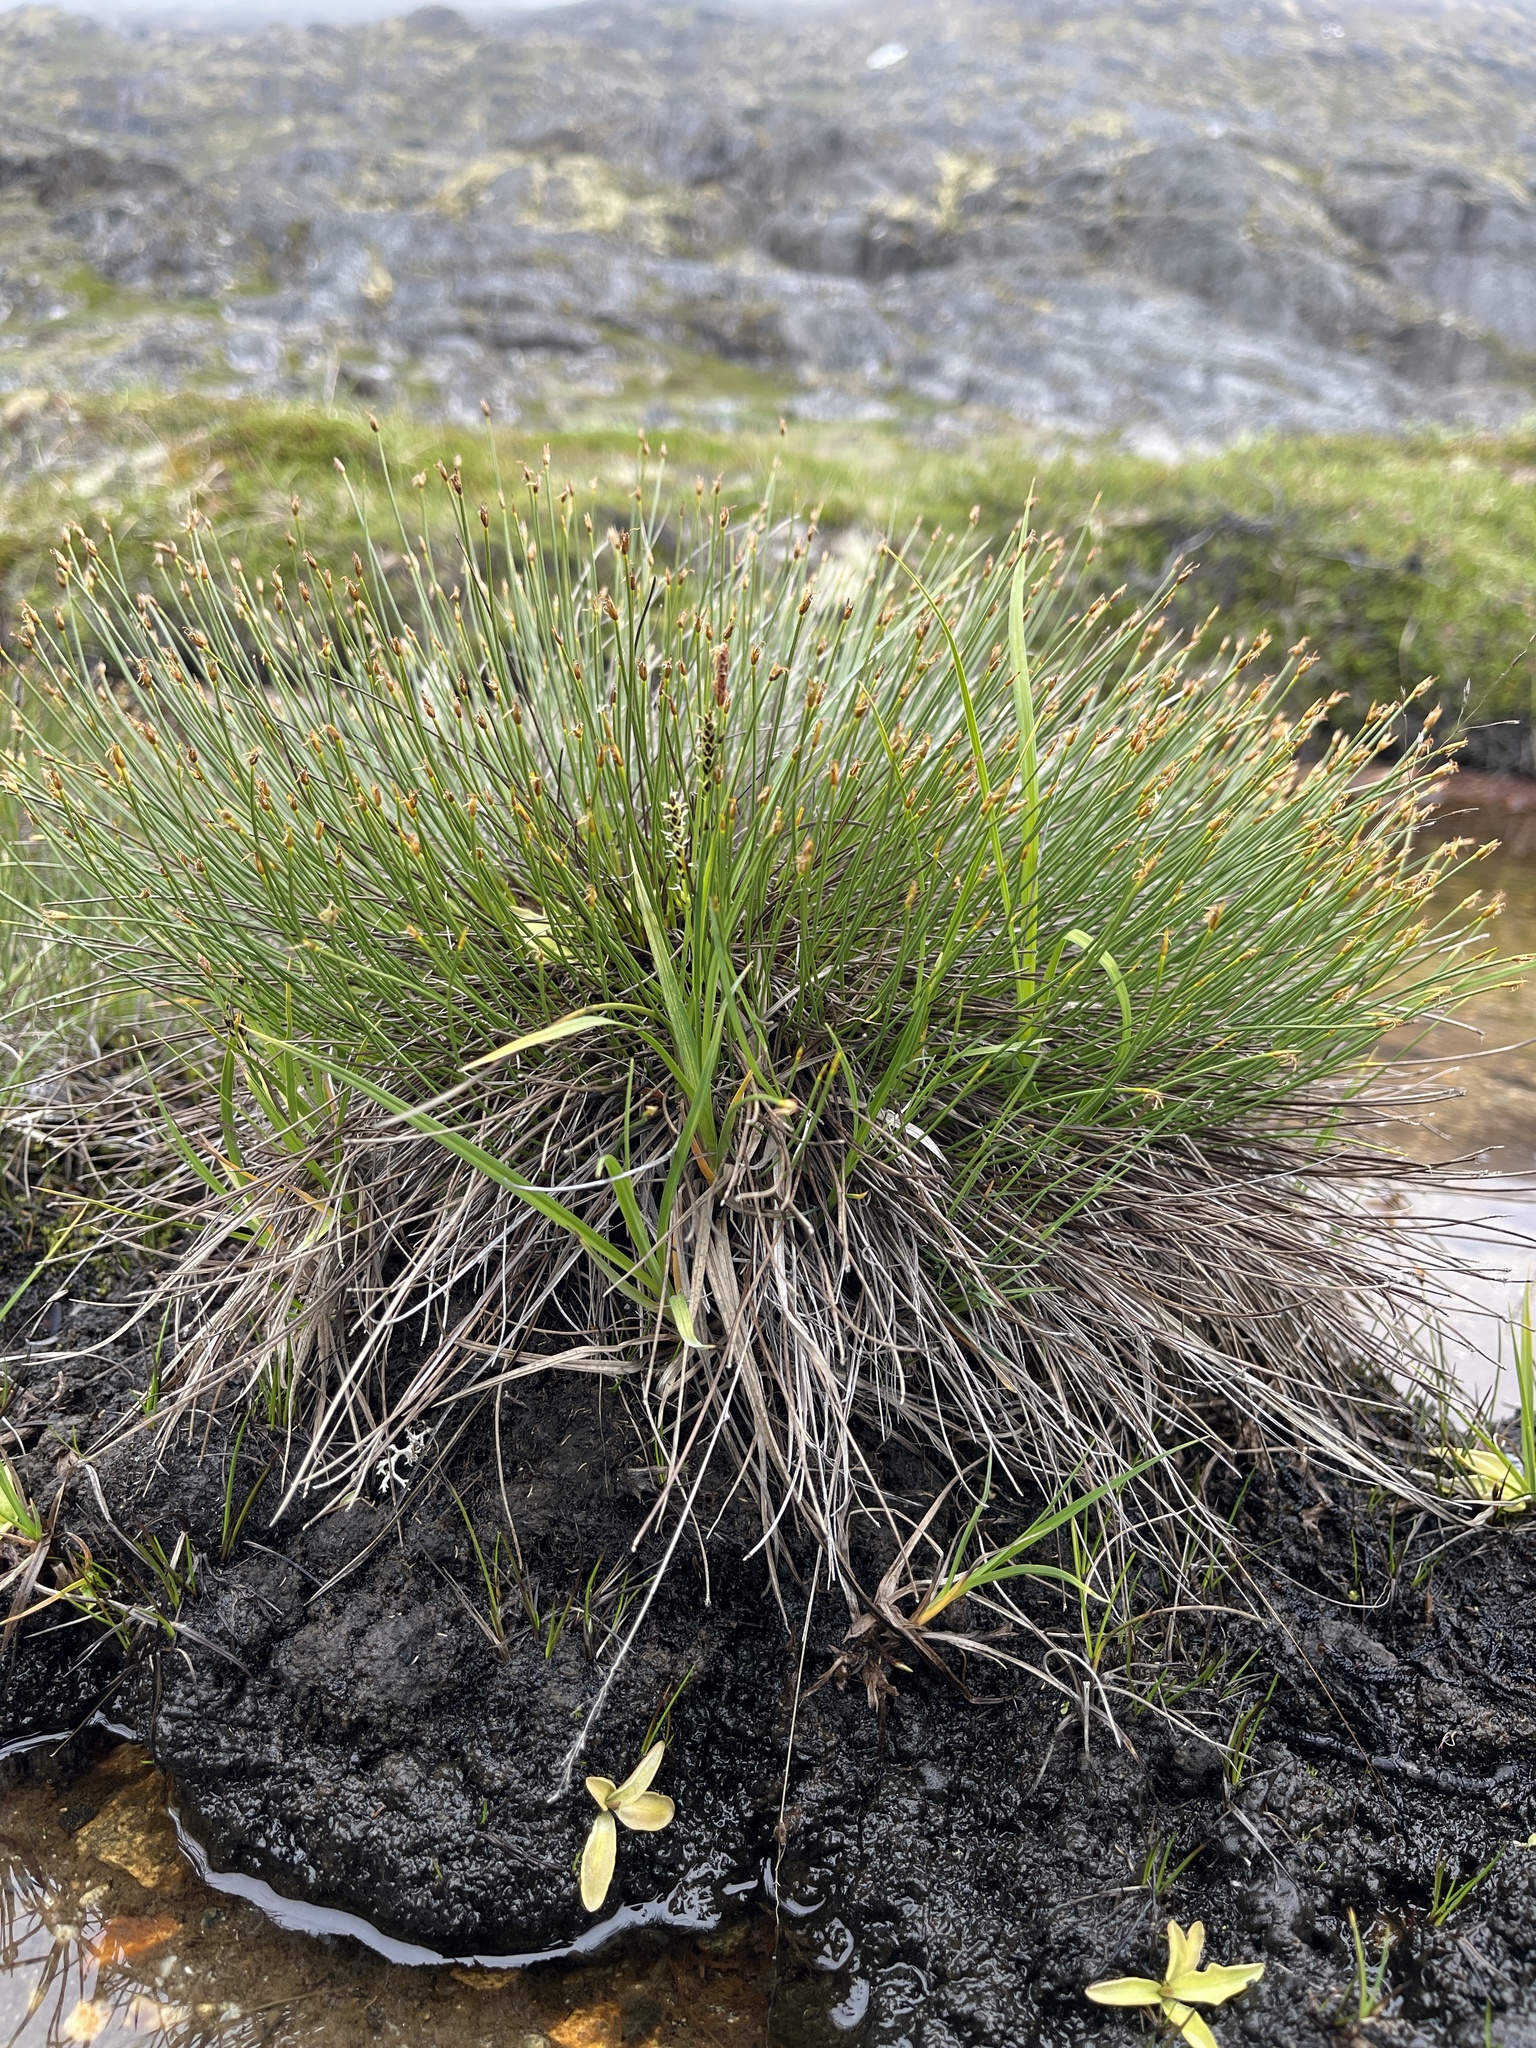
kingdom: Plantae
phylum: Tracheophyta
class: Liliopsida
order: Poales
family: Cyperaceae
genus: Trichophorum
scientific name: Trichophorum cespitosum
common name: Cespitose bulrush
